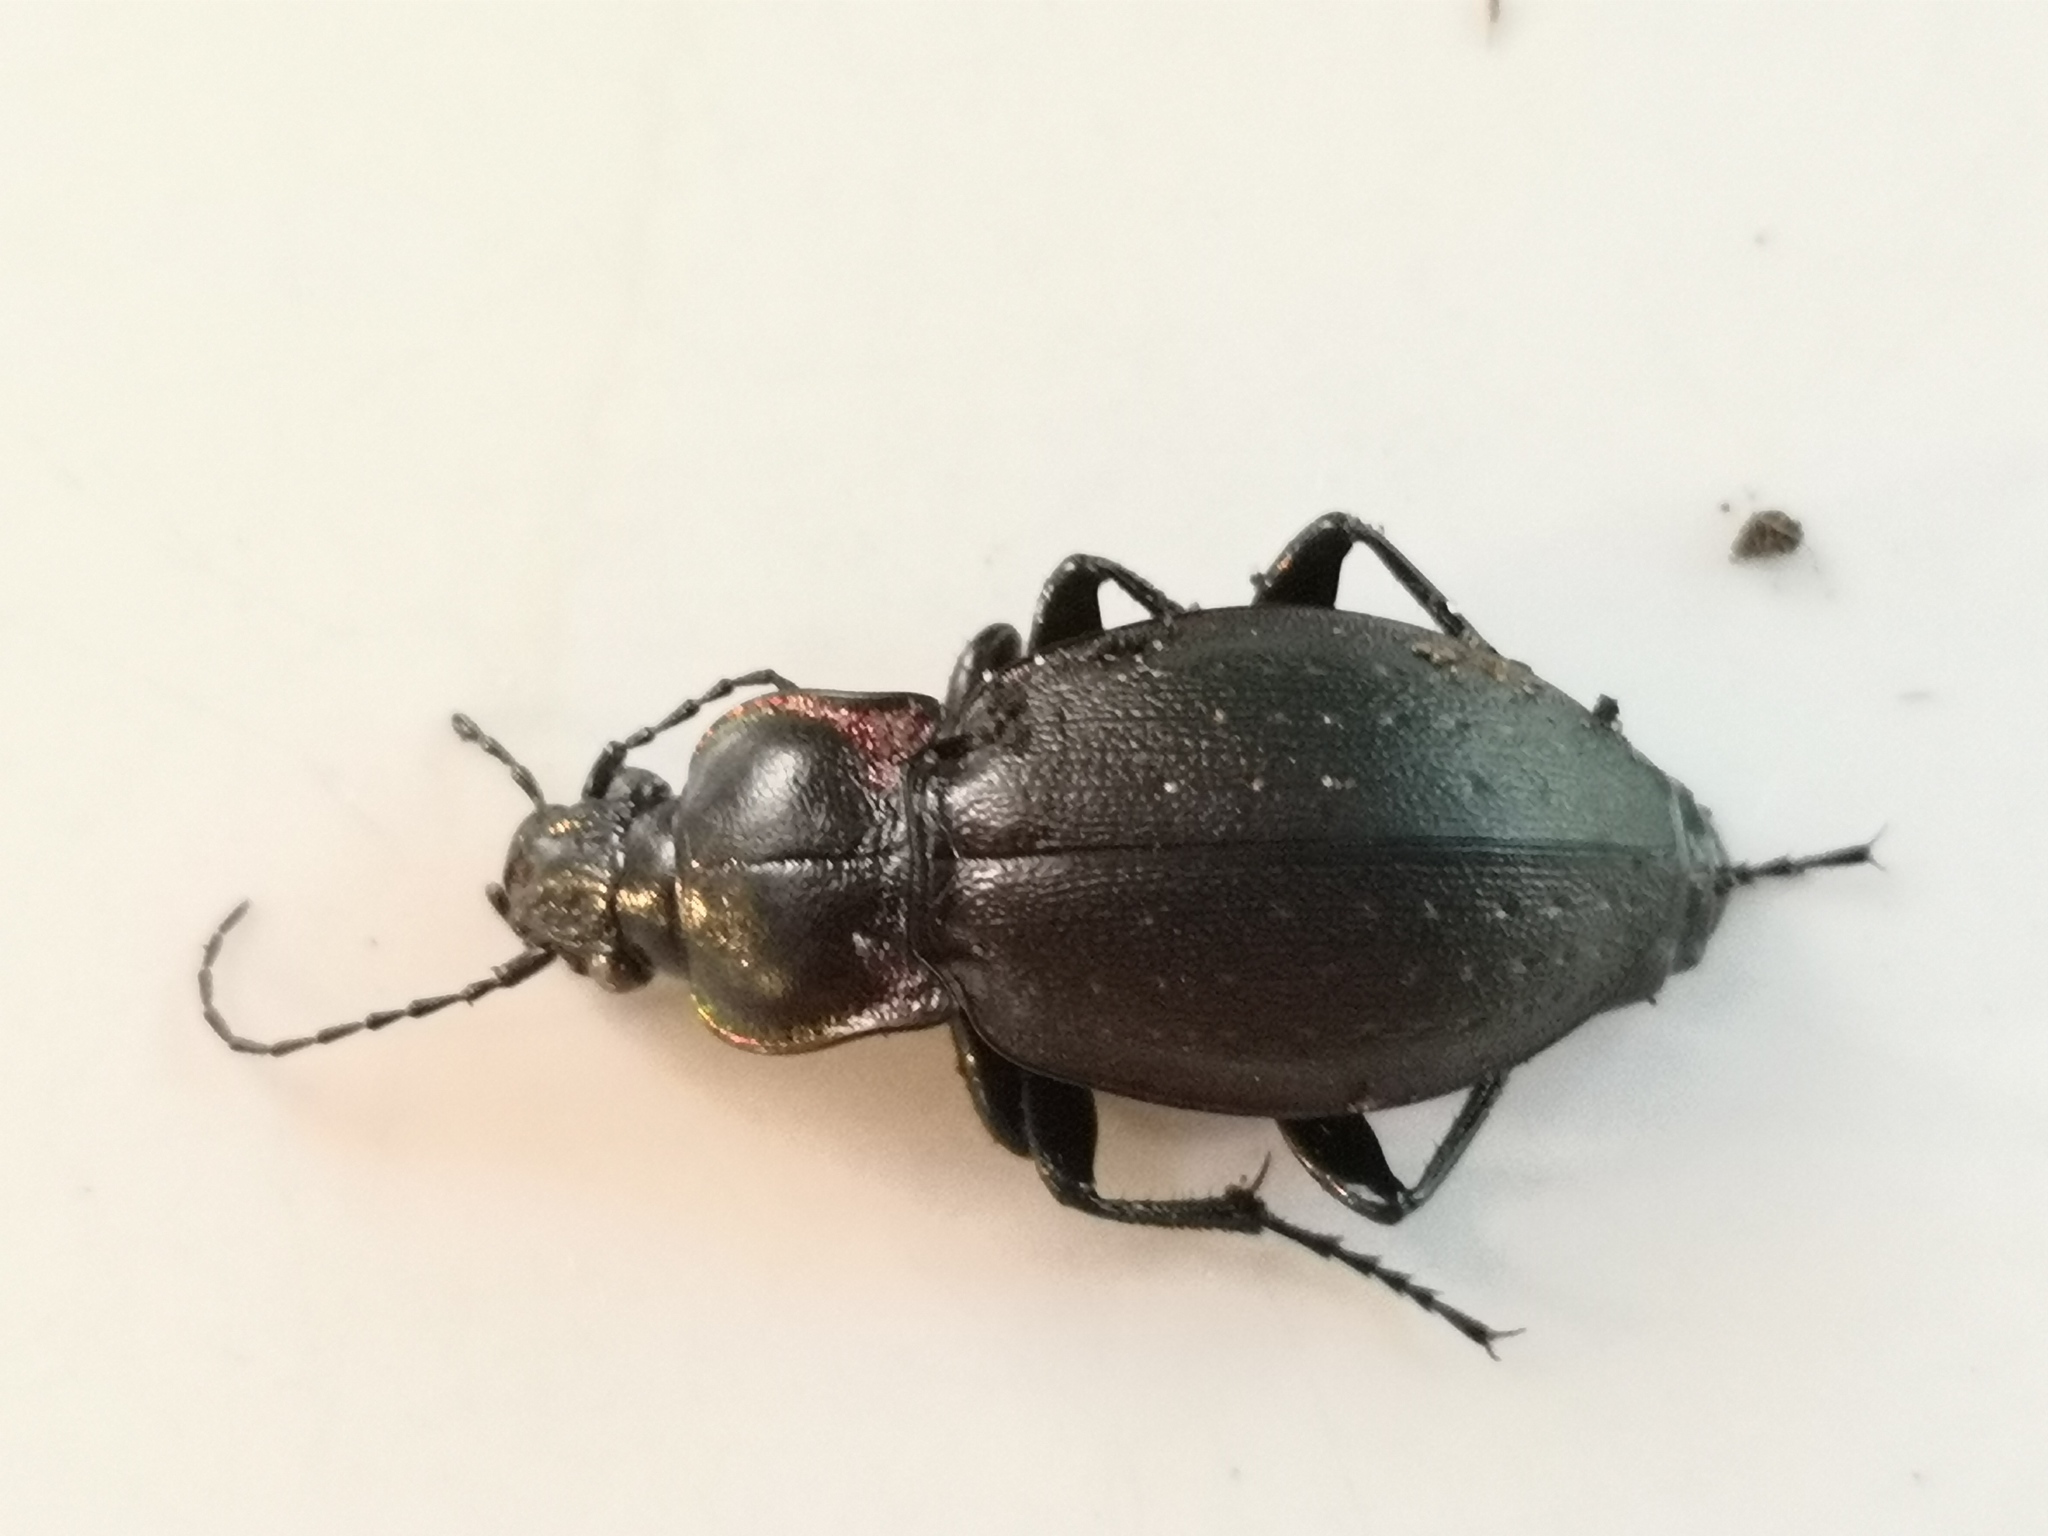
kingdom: Animalia
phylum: Arthropoda
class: Insecta
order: Coleoptera
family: Carabidae
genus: Carabus
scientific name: Carabus nemoralis
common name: European ground beetle
